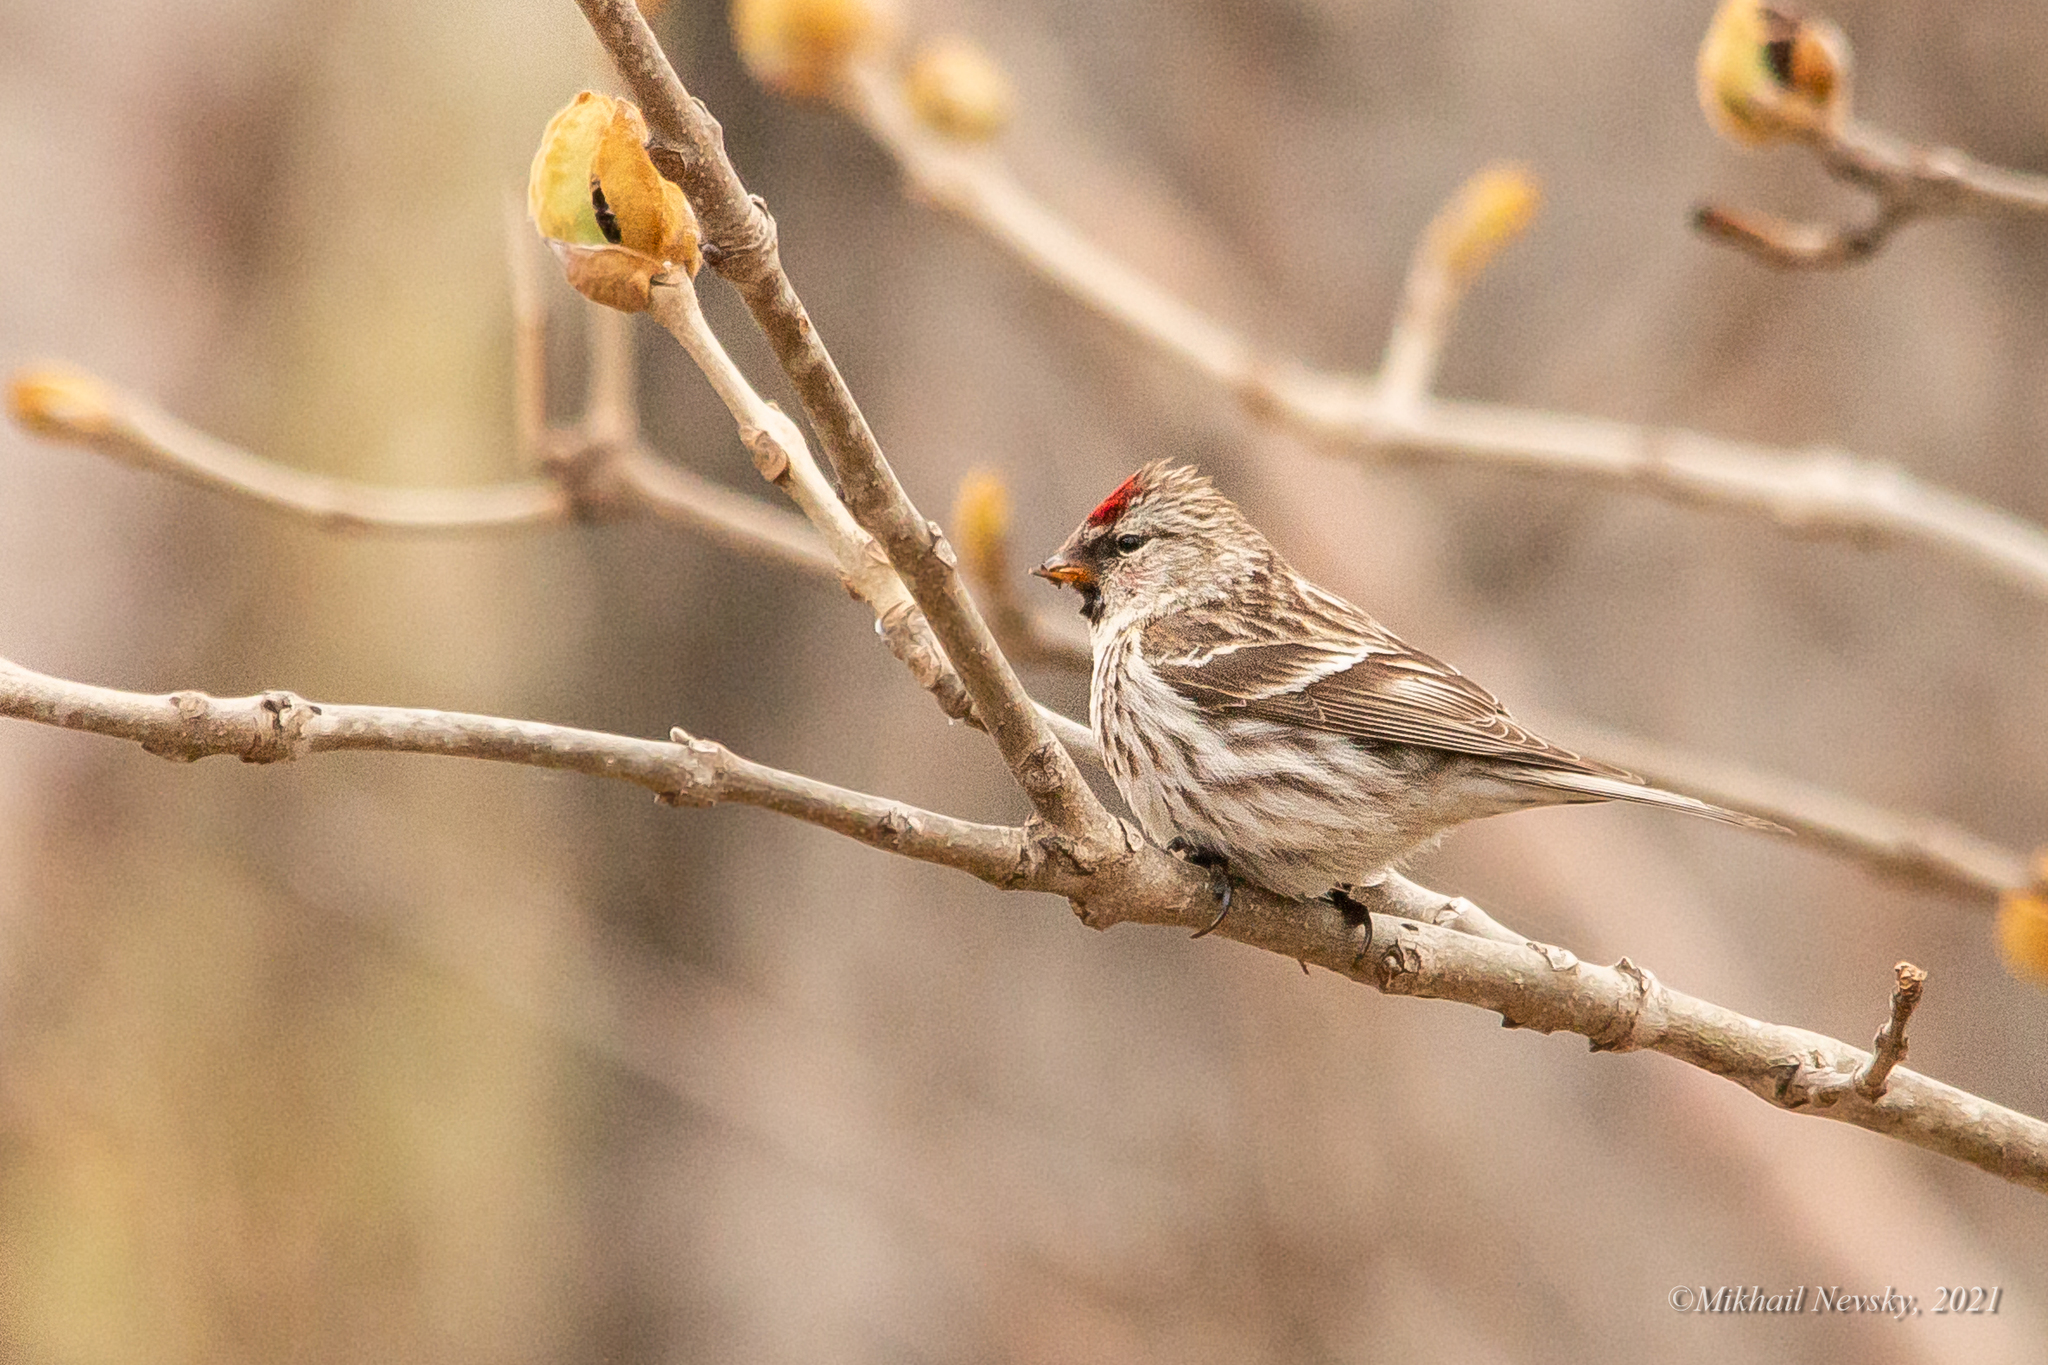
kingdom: Animalia
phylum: Chordata
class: Aves
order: Passeriformes
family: Fringillidae
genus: Acanthis
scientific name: Acanthis flammea
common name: Common redpoll
